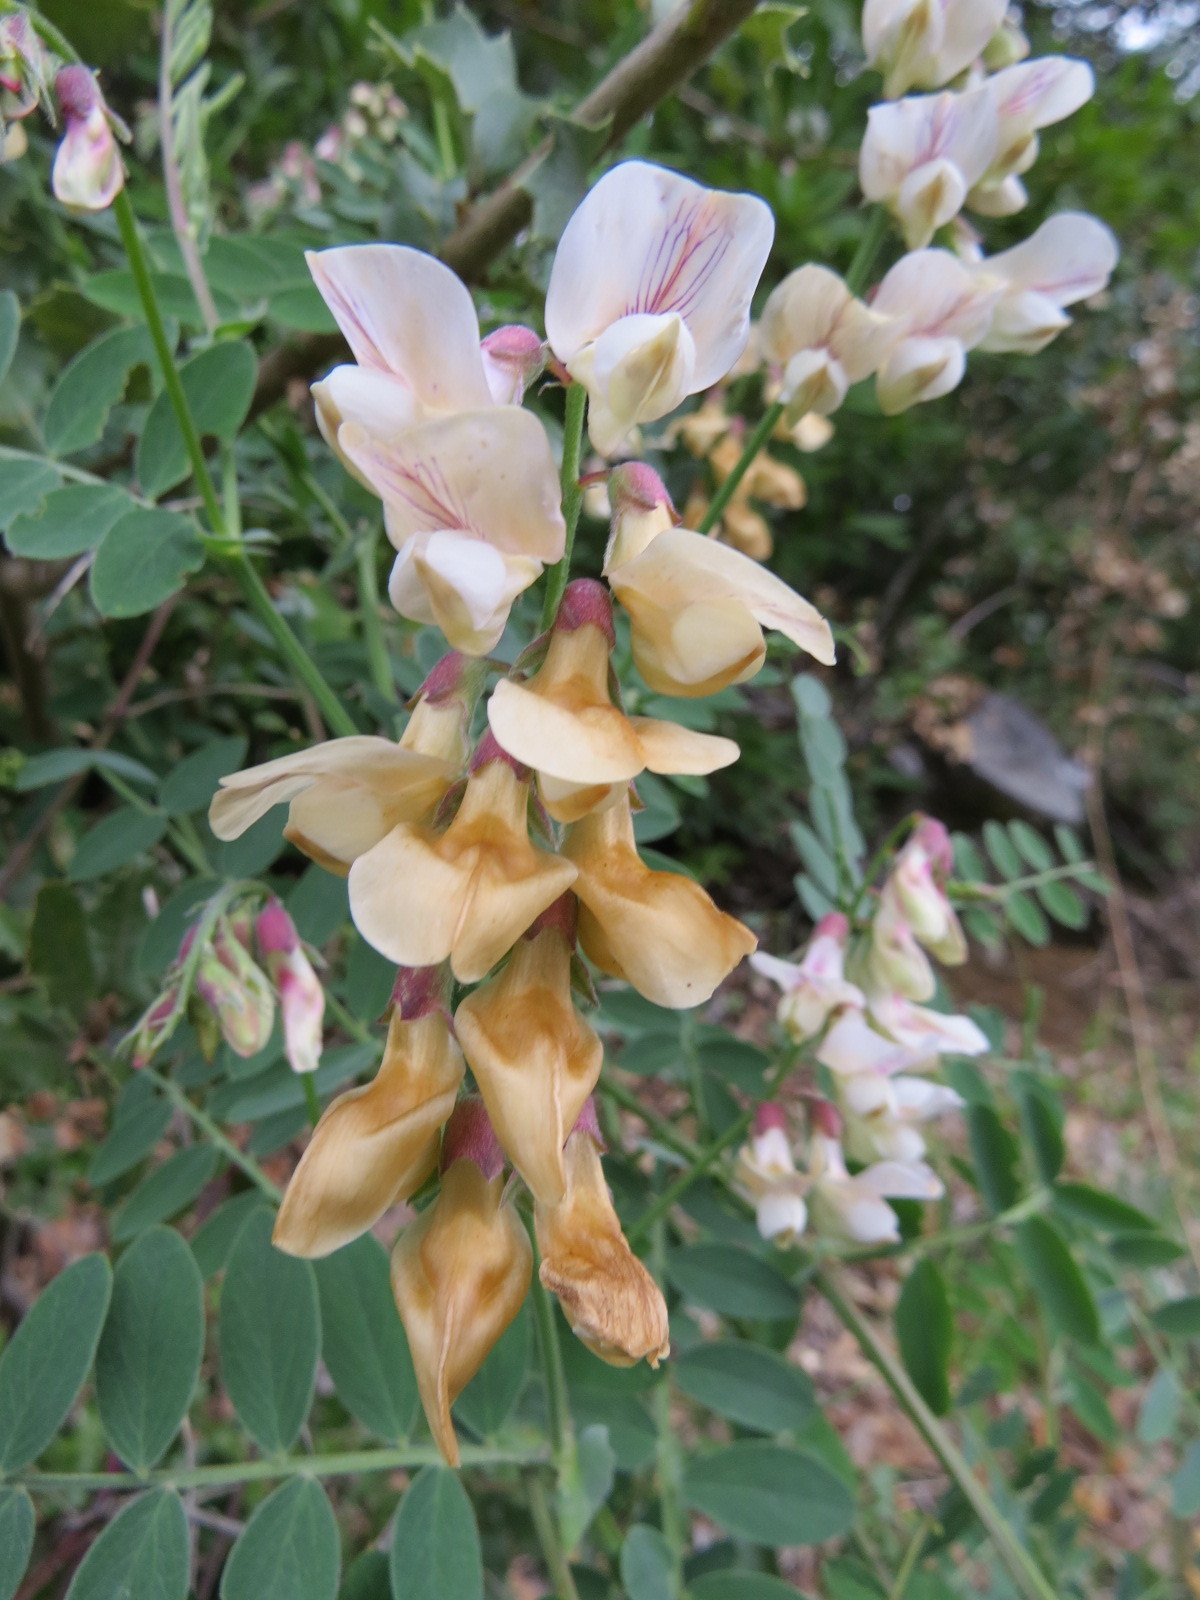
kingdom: Plantae
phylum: Tracheophyta
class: Magnoliopsida
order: Fabales
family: Fabaceae
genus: Lathyrus
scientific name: Lathyrus vestitus
